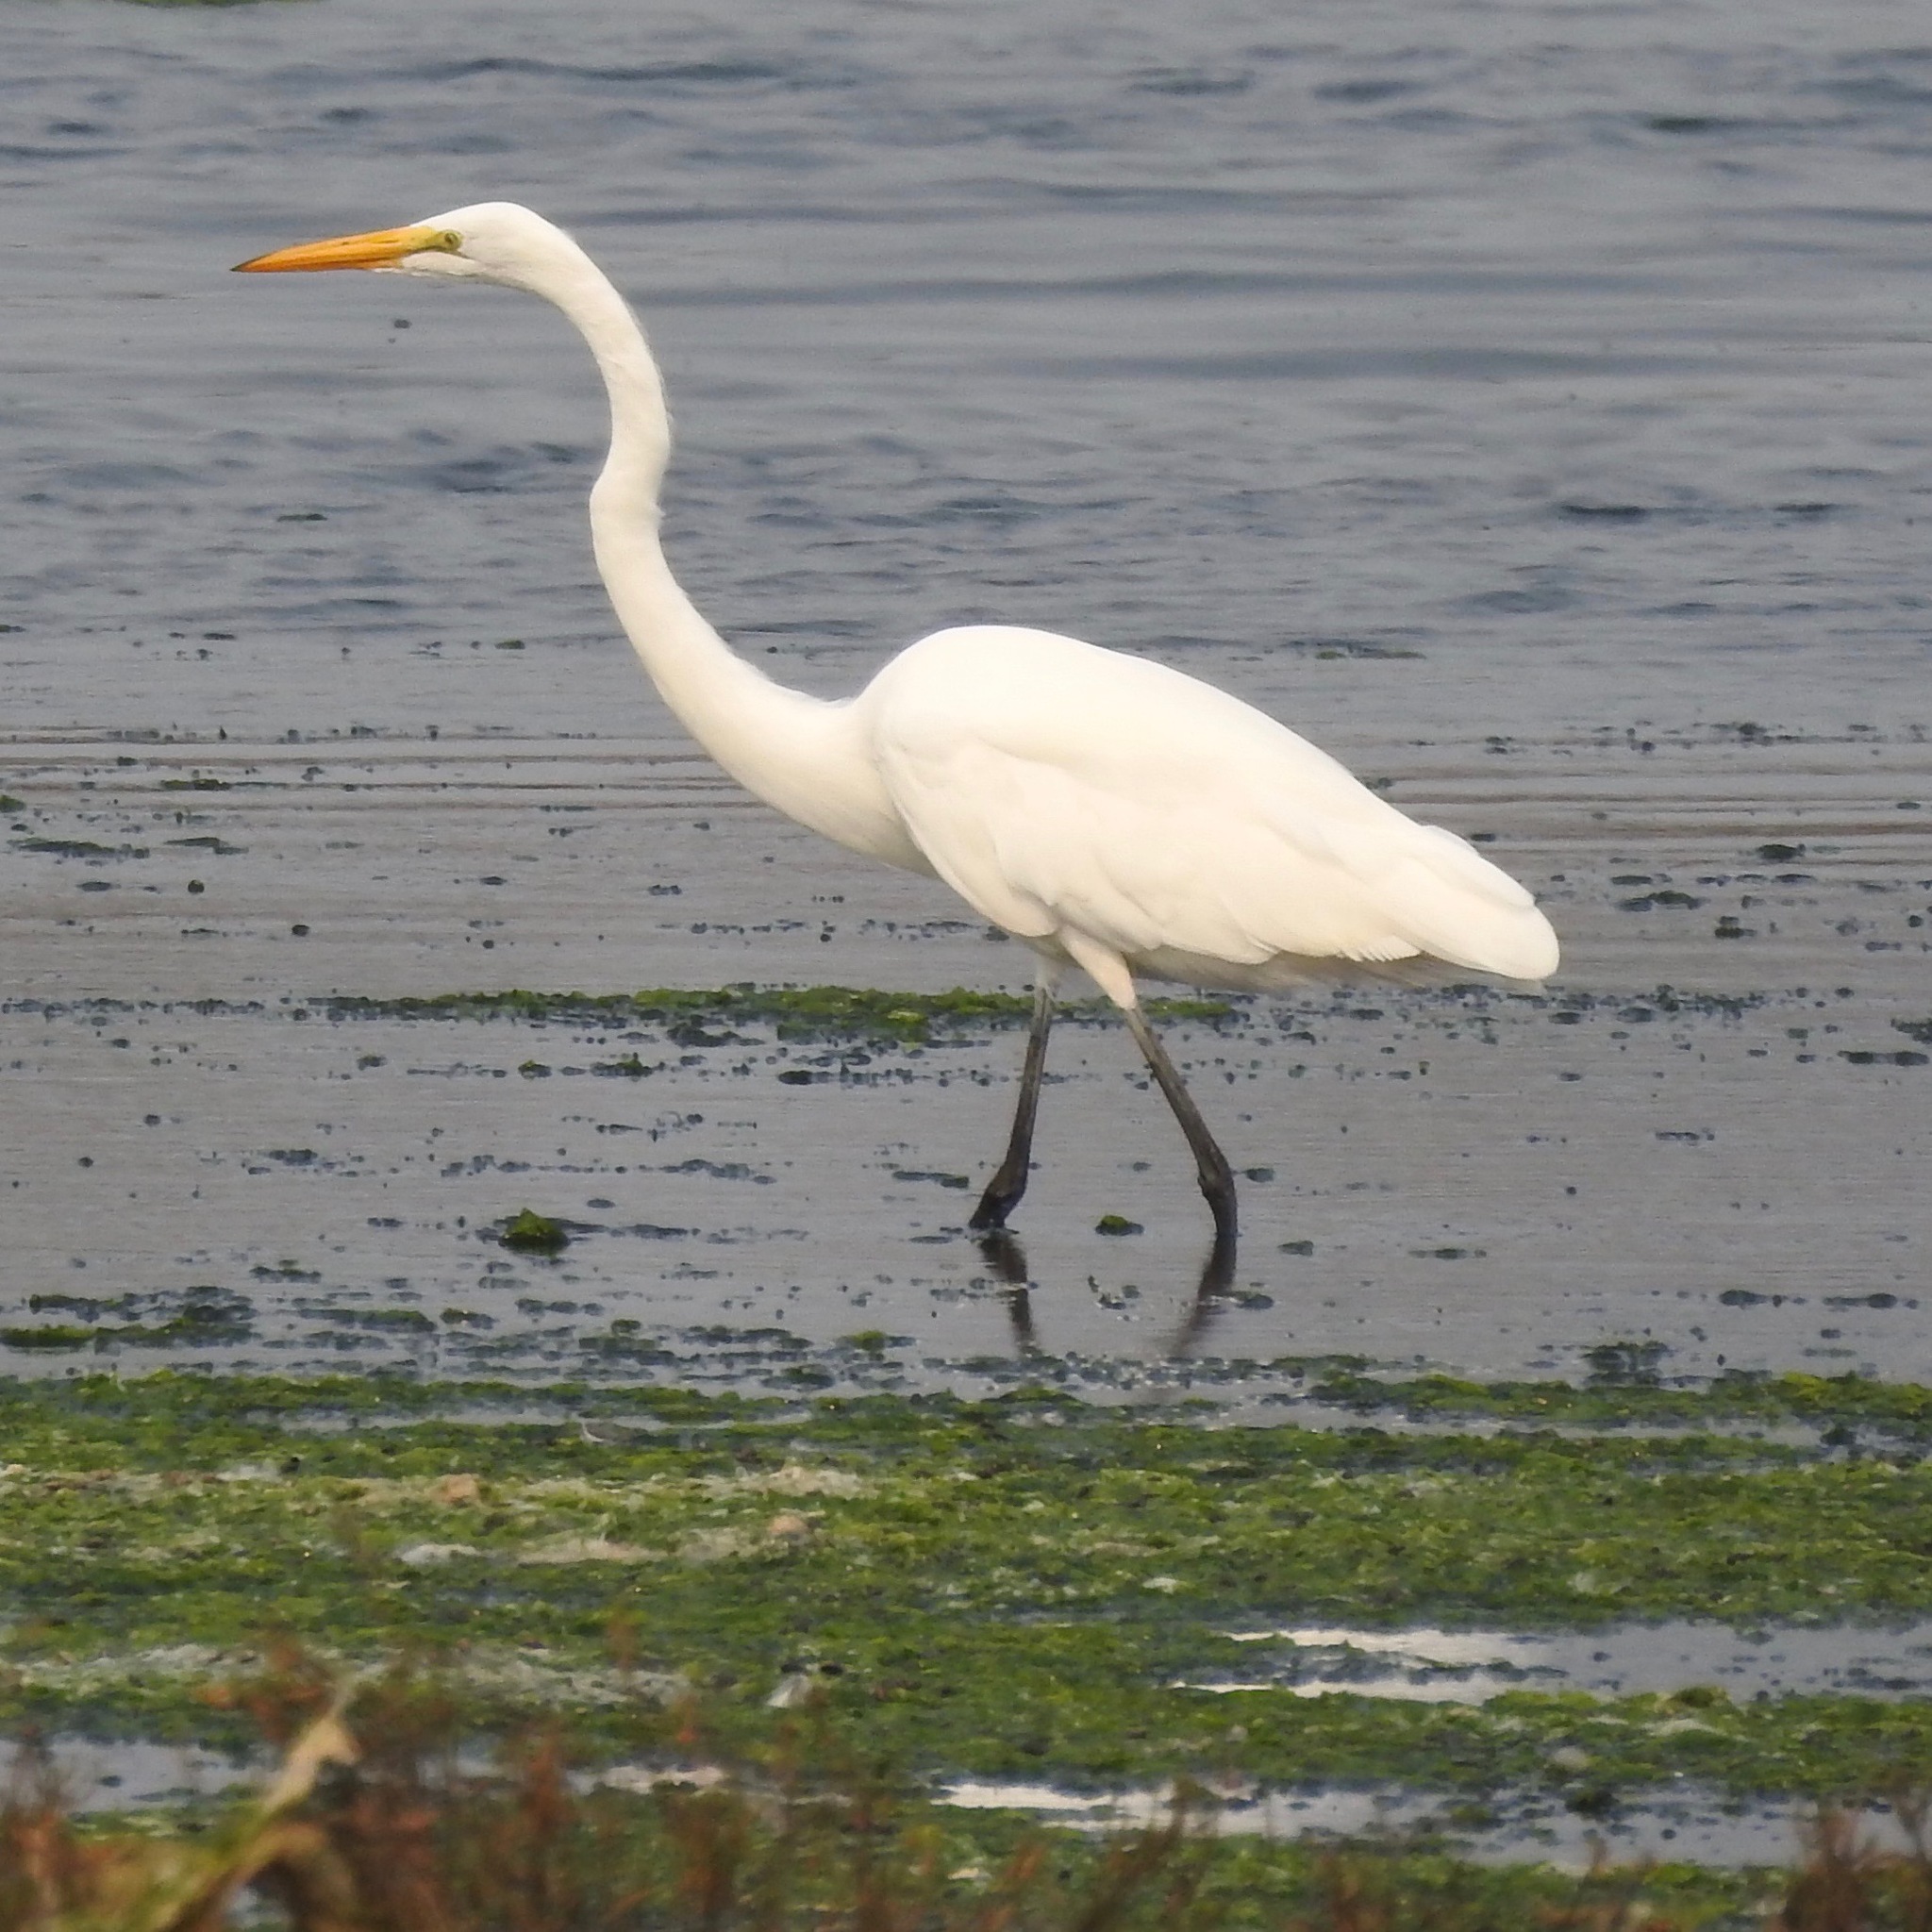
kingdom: Animalia
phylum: Chordata
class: Aves
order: Pelecaniformes
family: Ardeidae
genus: Ardea
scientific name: Ardea alba
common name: Great egret
